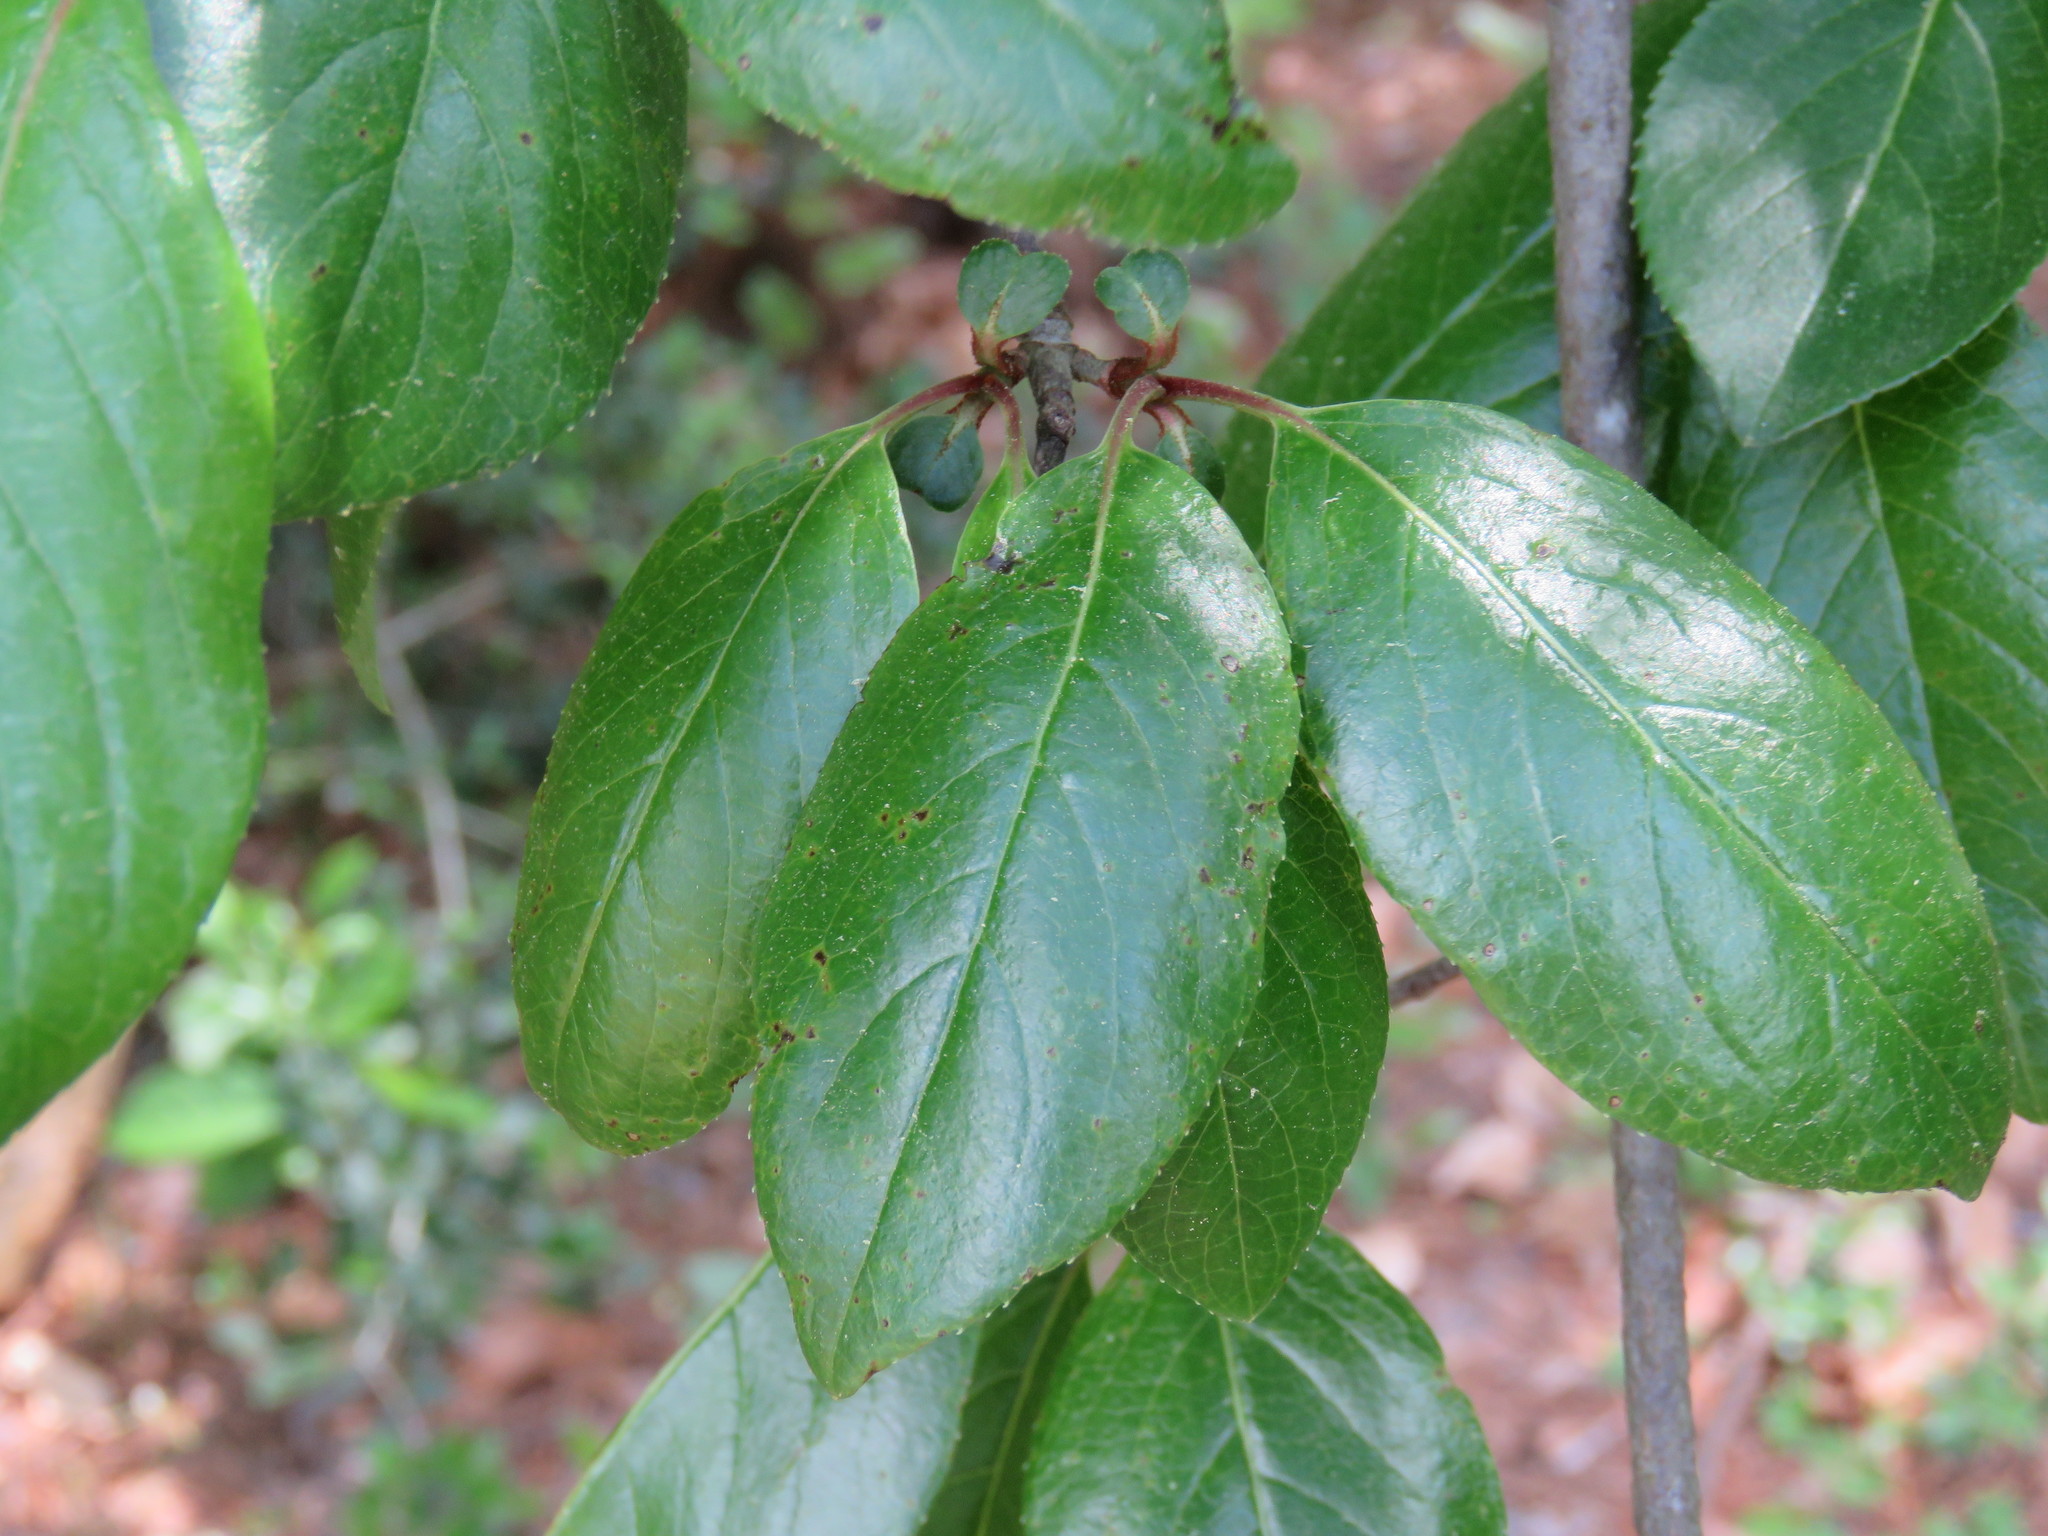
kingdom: Plantae
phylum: Tracheophyta
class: Magnoliopsida
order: Dipsacales
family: Viburnaceae
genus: Viburnum
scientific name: Viburnum rufidulum
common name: Blue haw
